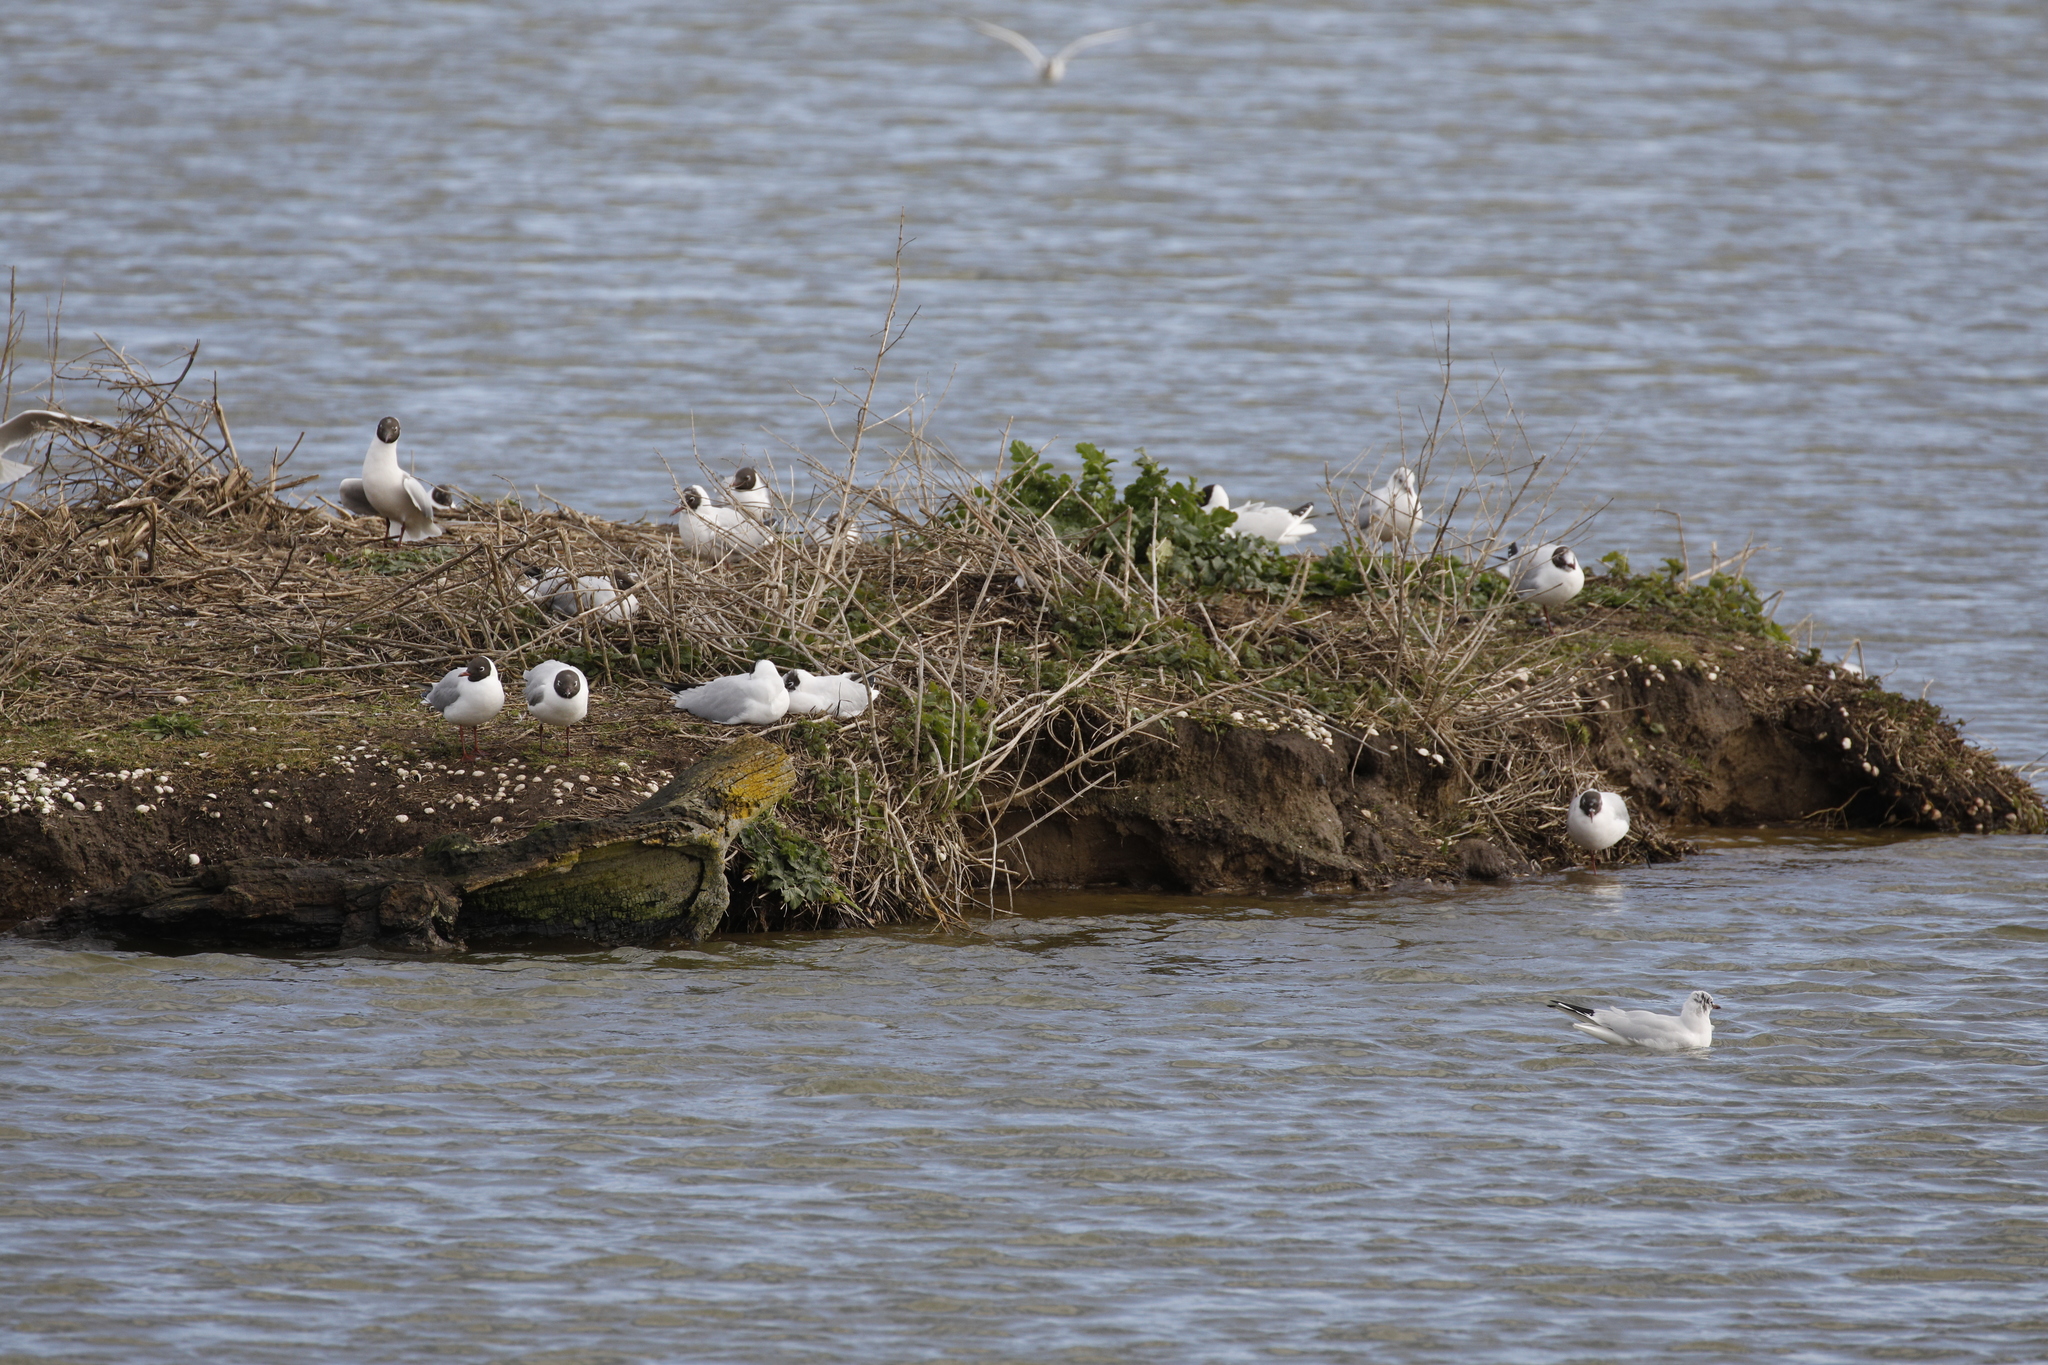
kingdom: Animalia
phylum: Chordata
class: Aves
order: Charadriiformes
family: Laridae
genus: Chroicocephalus
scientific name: Chroicocephalus ridibundus
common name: Black-headed gull
